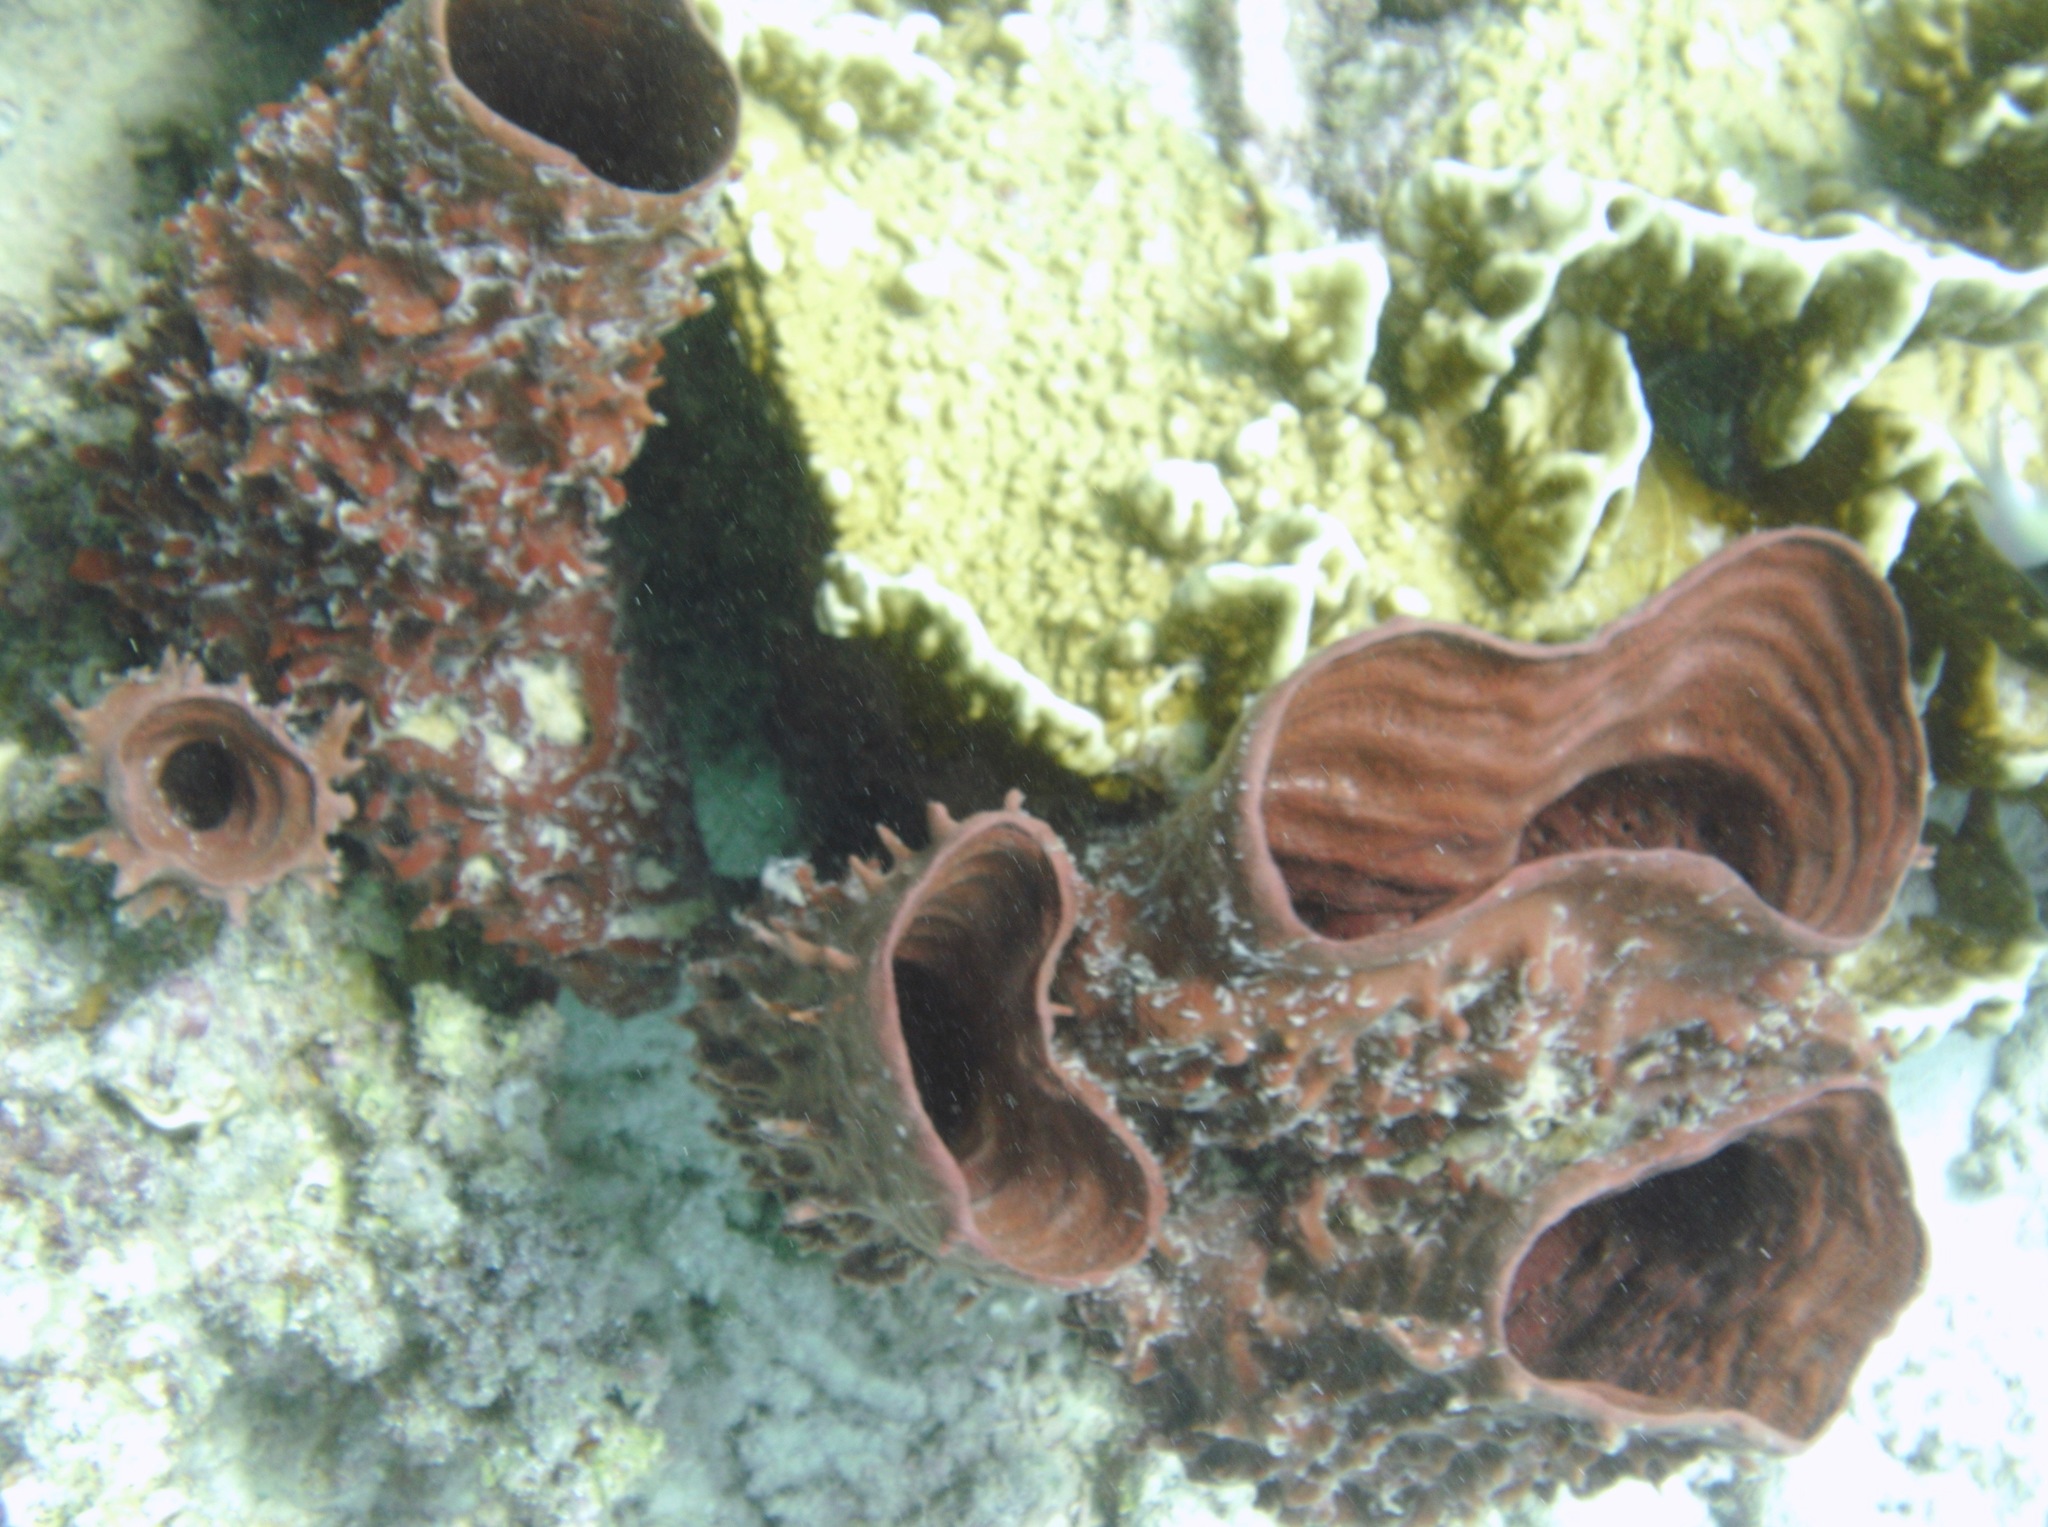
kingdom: Animalia
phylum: Porifera
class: Demospongiae
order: Haplosclerida
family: Callyspongiidae
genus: Callyspongia
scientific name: Callyspongia crassa
